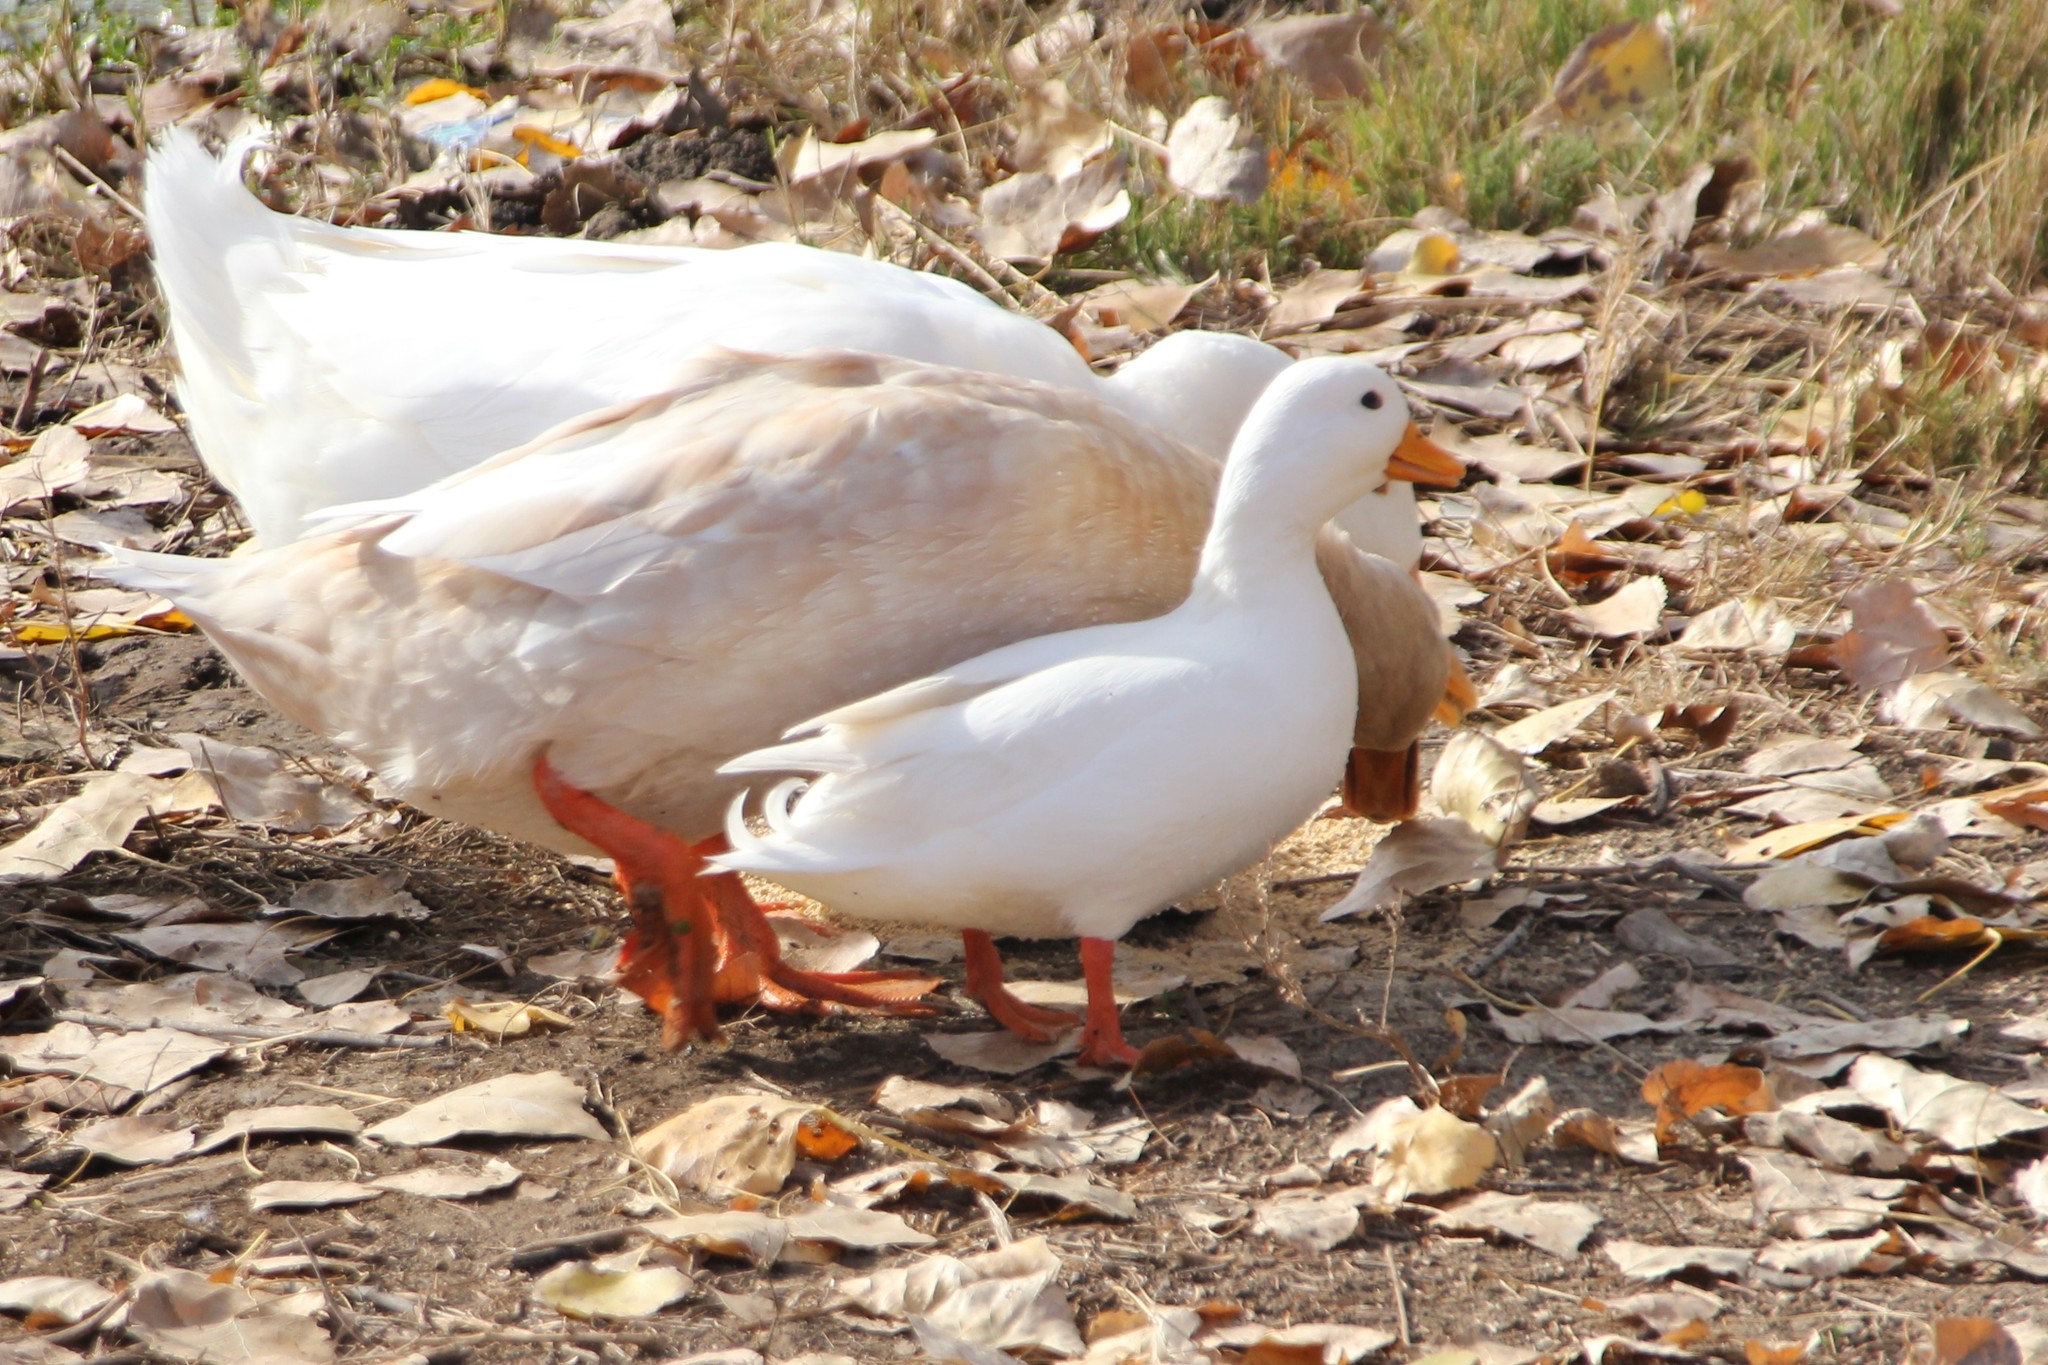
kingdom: Animalia
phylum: Chordata
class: Aves
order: Anseriformes
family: Anatidae
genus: Anas
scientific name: Anas platyrhynchos
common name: Mallard
